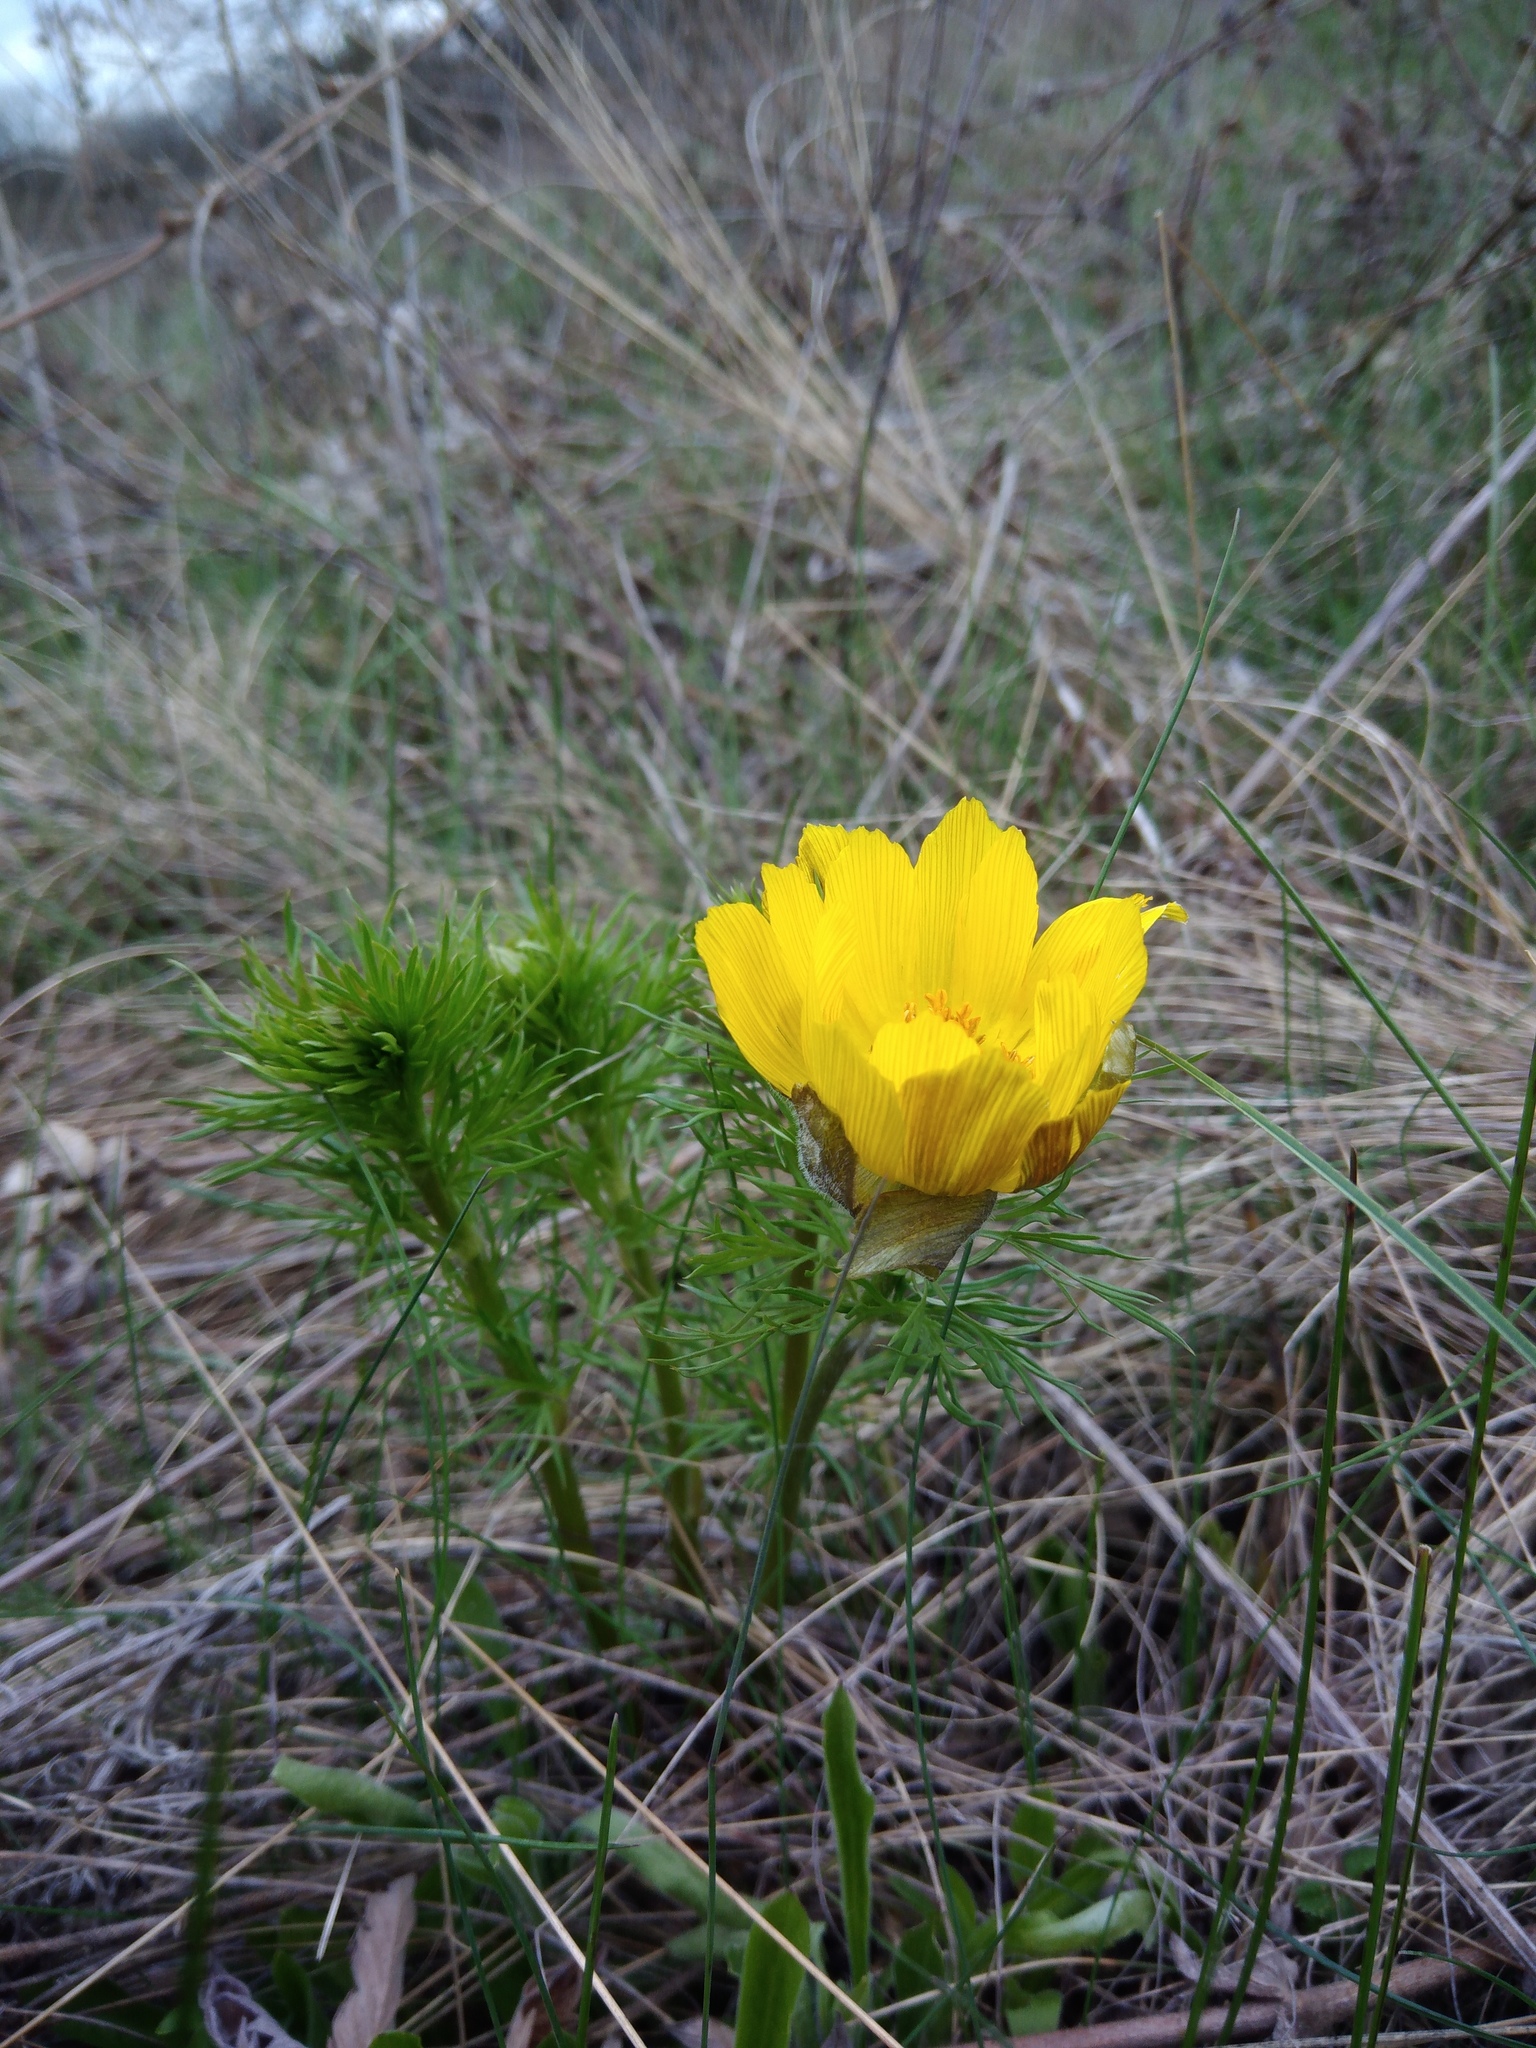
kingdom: Plantae
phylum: Tracheophyta
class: Magnoliopsida
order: Ranunculales
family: Ranunculaceae
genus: Adonis
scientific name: Adonis vernalis
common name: Yellow pheasants-eye
